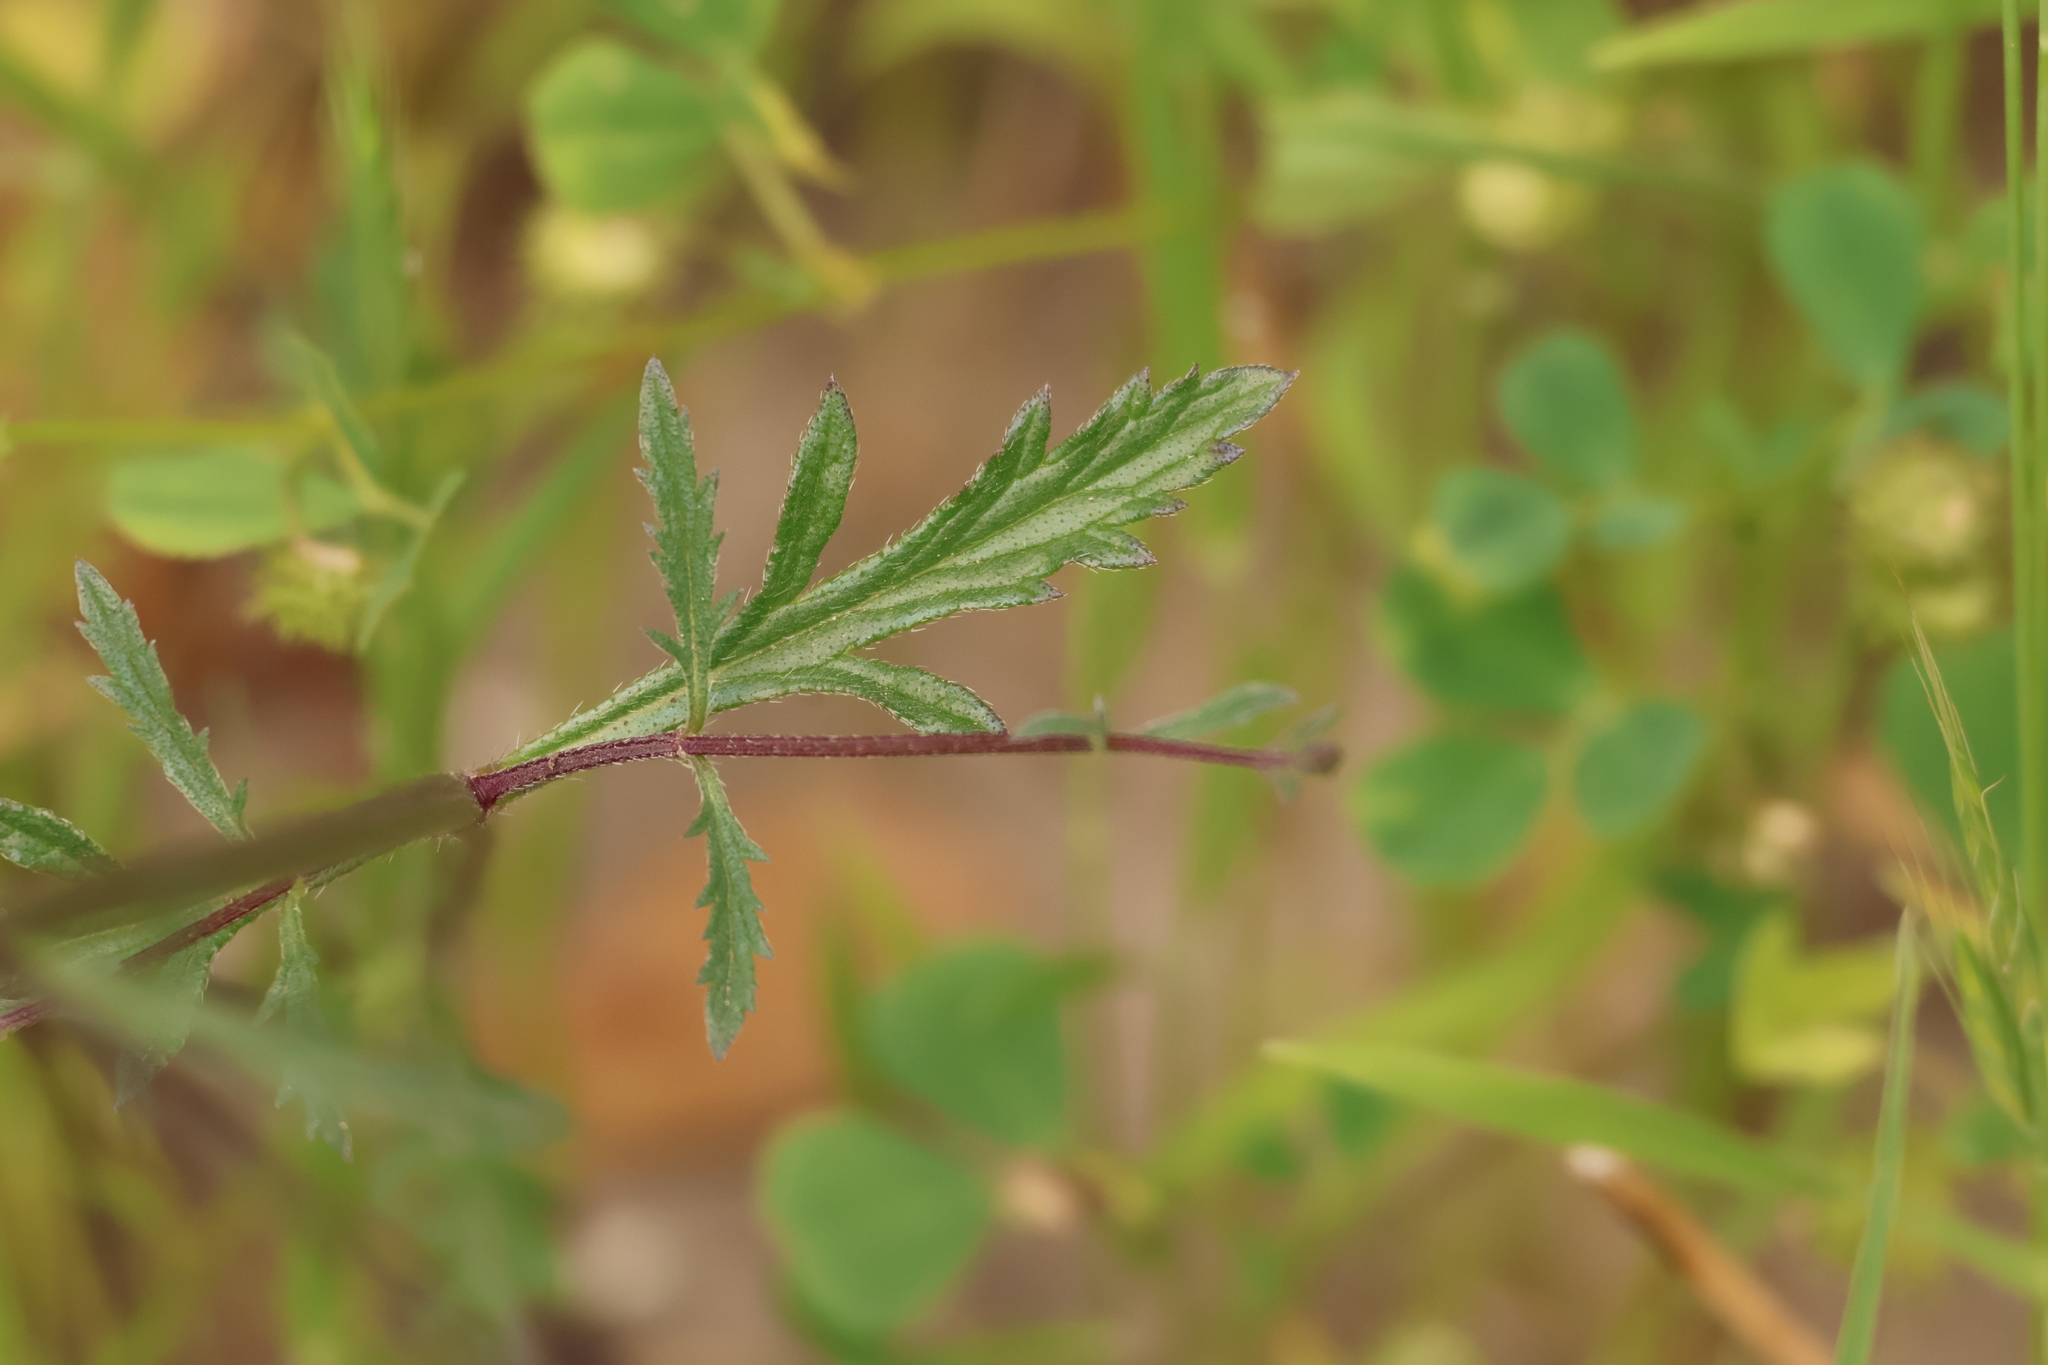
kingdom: Plantae
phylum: Tracheophyta
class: Magnoliopsida
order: Lamiales
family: Verbenaceae
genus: Verbena
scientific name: Verbena menthifolia
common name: Mint-leaf vervain
